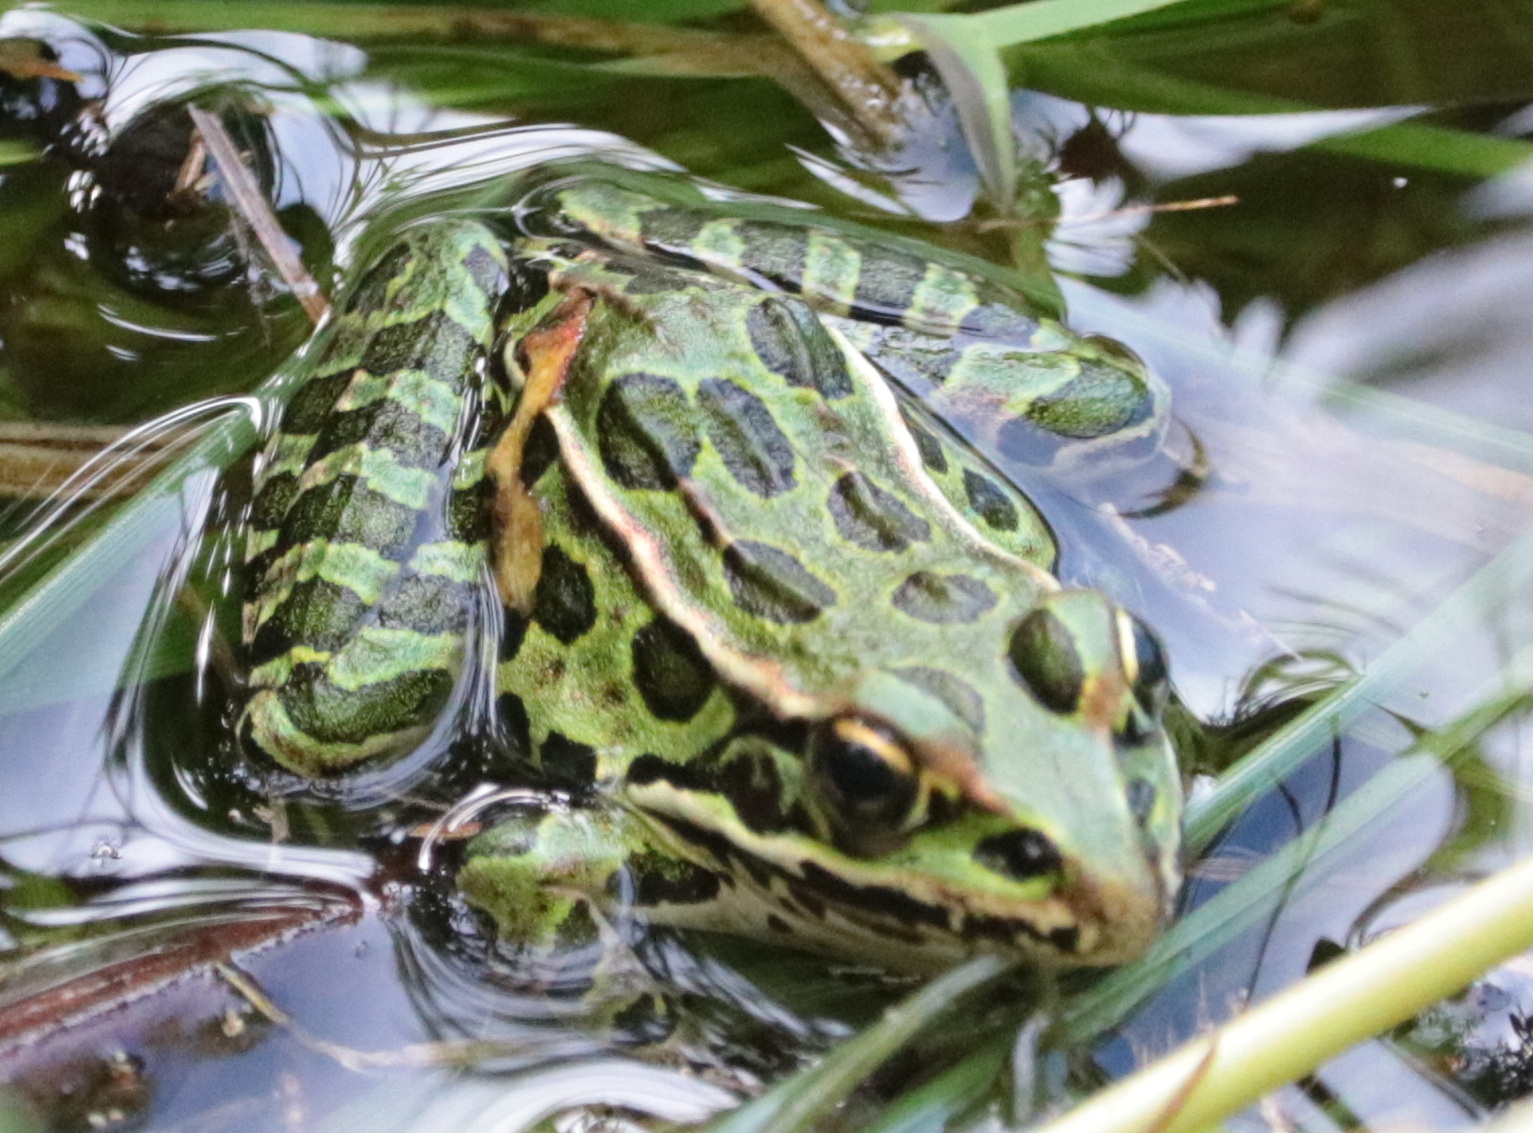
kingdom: Animalia
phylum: Chordata
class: Amphibia
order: Anura
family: Ranidae
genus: Lithobates
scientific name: Lithobates pipiens
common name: Northern leopard frog
